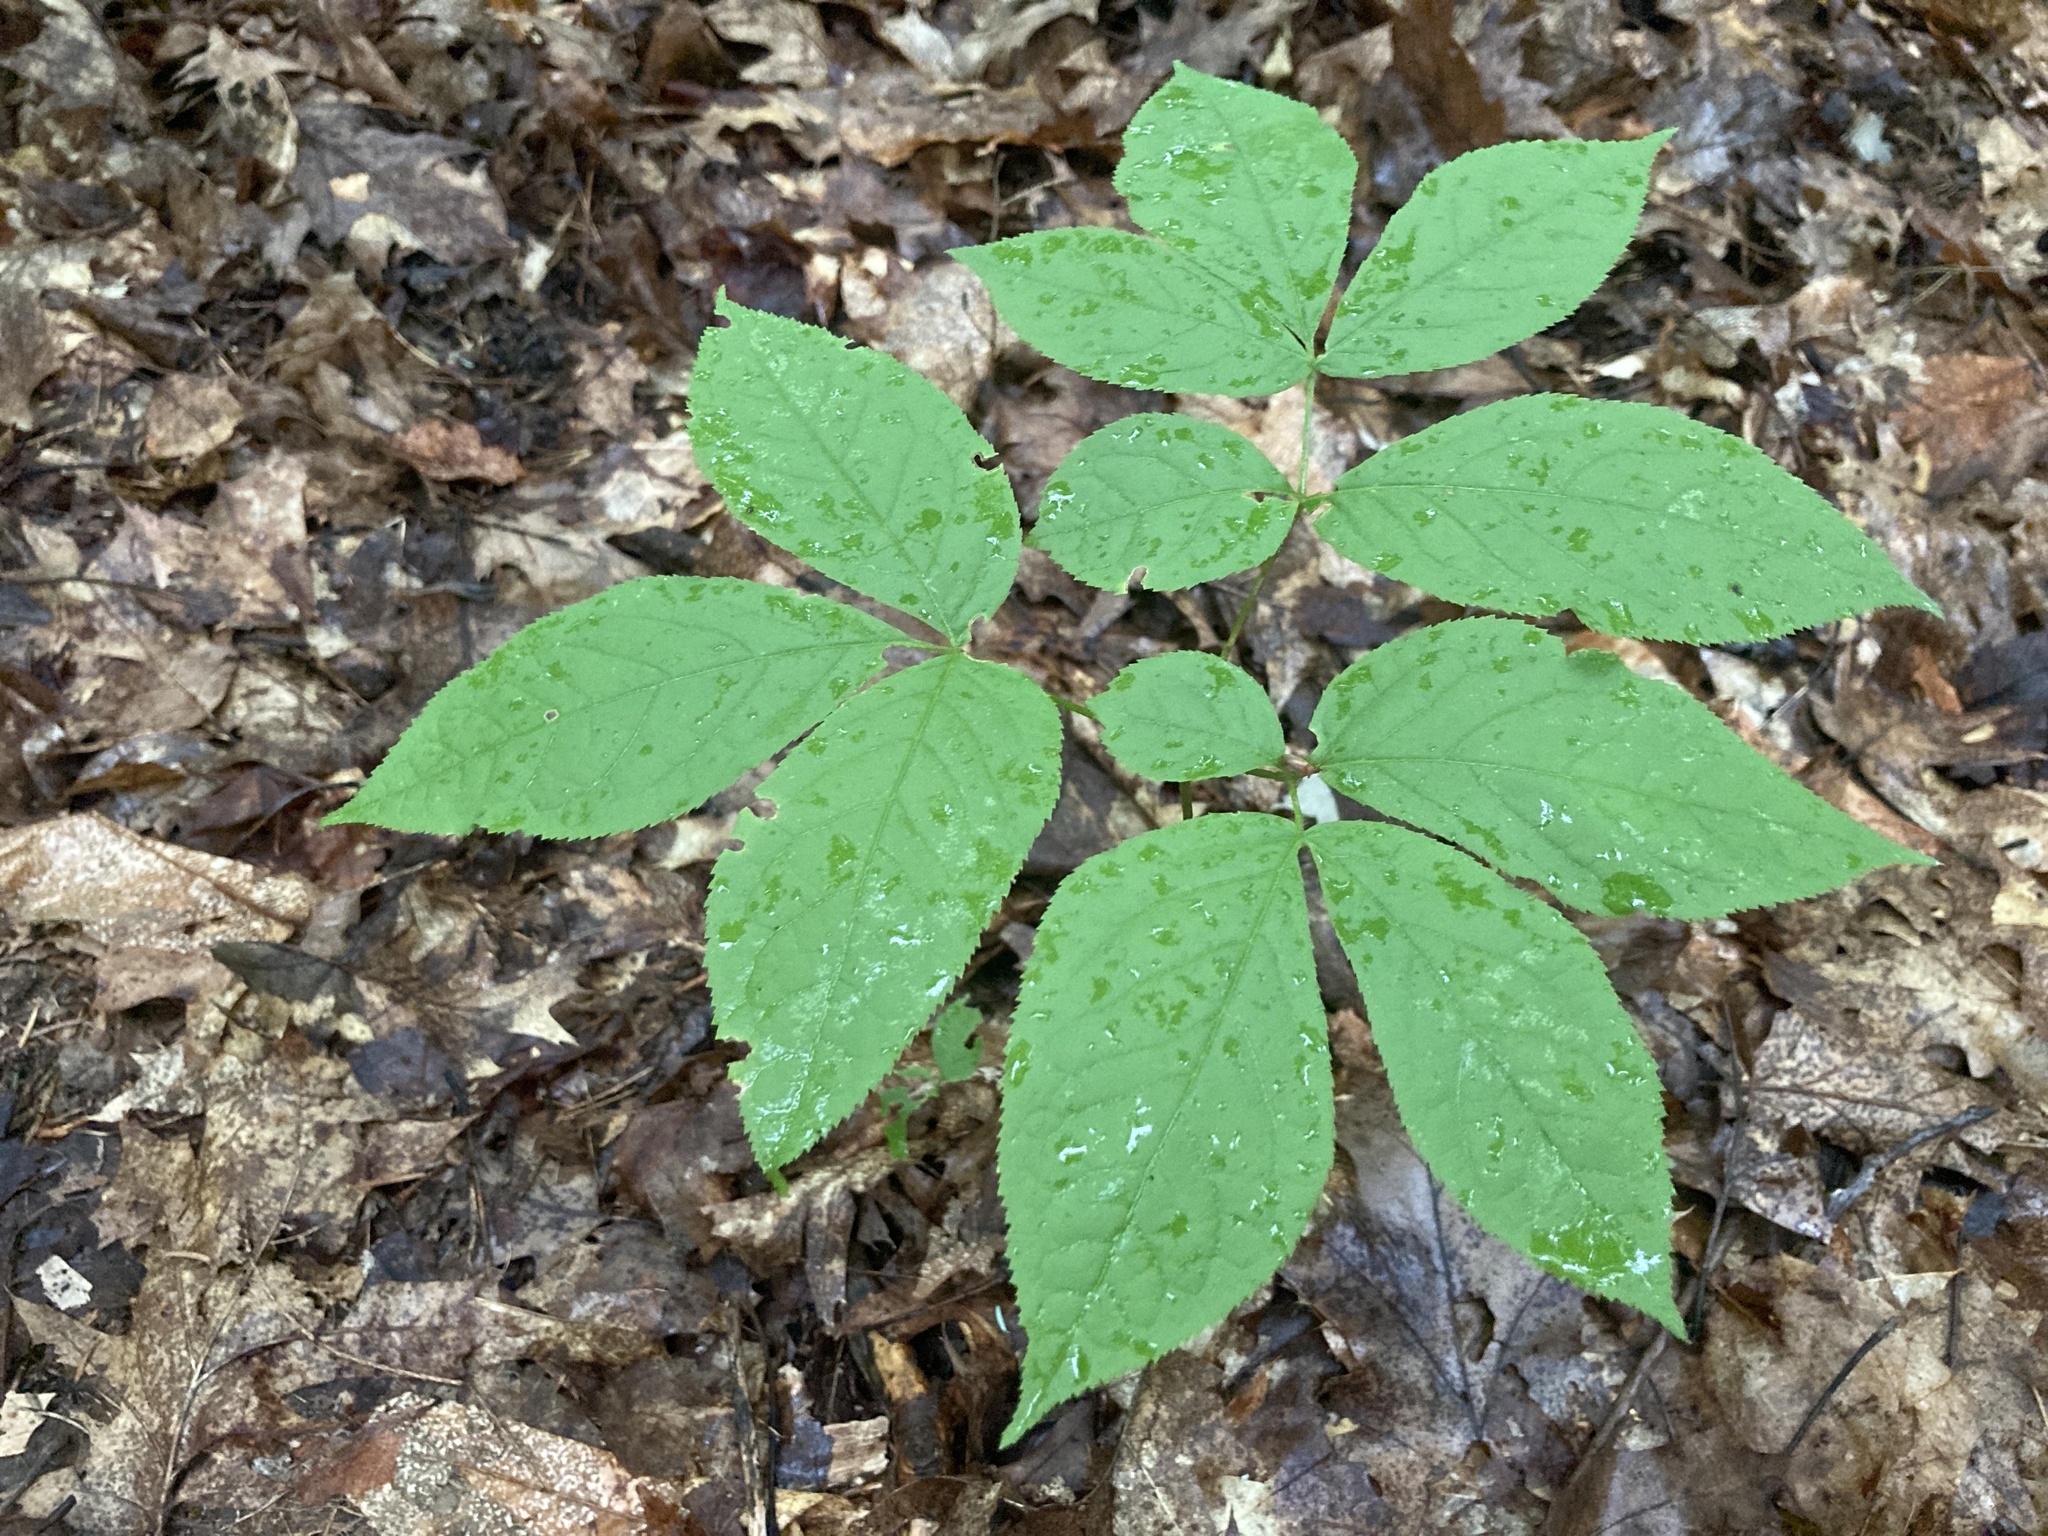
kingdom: Plantae
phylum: Tracheophyta
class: Magnoliopsida
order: Apiales
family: Araliaceae
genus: Aralia
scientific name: Aralia nudicaulis
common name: Wild sarsaparilla
